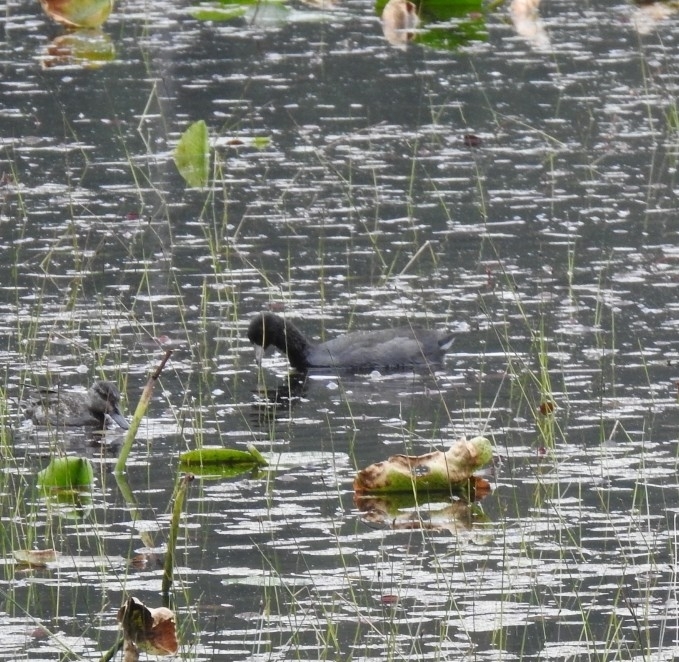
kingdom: Animalia
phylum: Chordata
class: Aves
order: Gruiformes
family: Rallidae
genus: Fulica
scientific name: Fulica americana
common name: American coot
